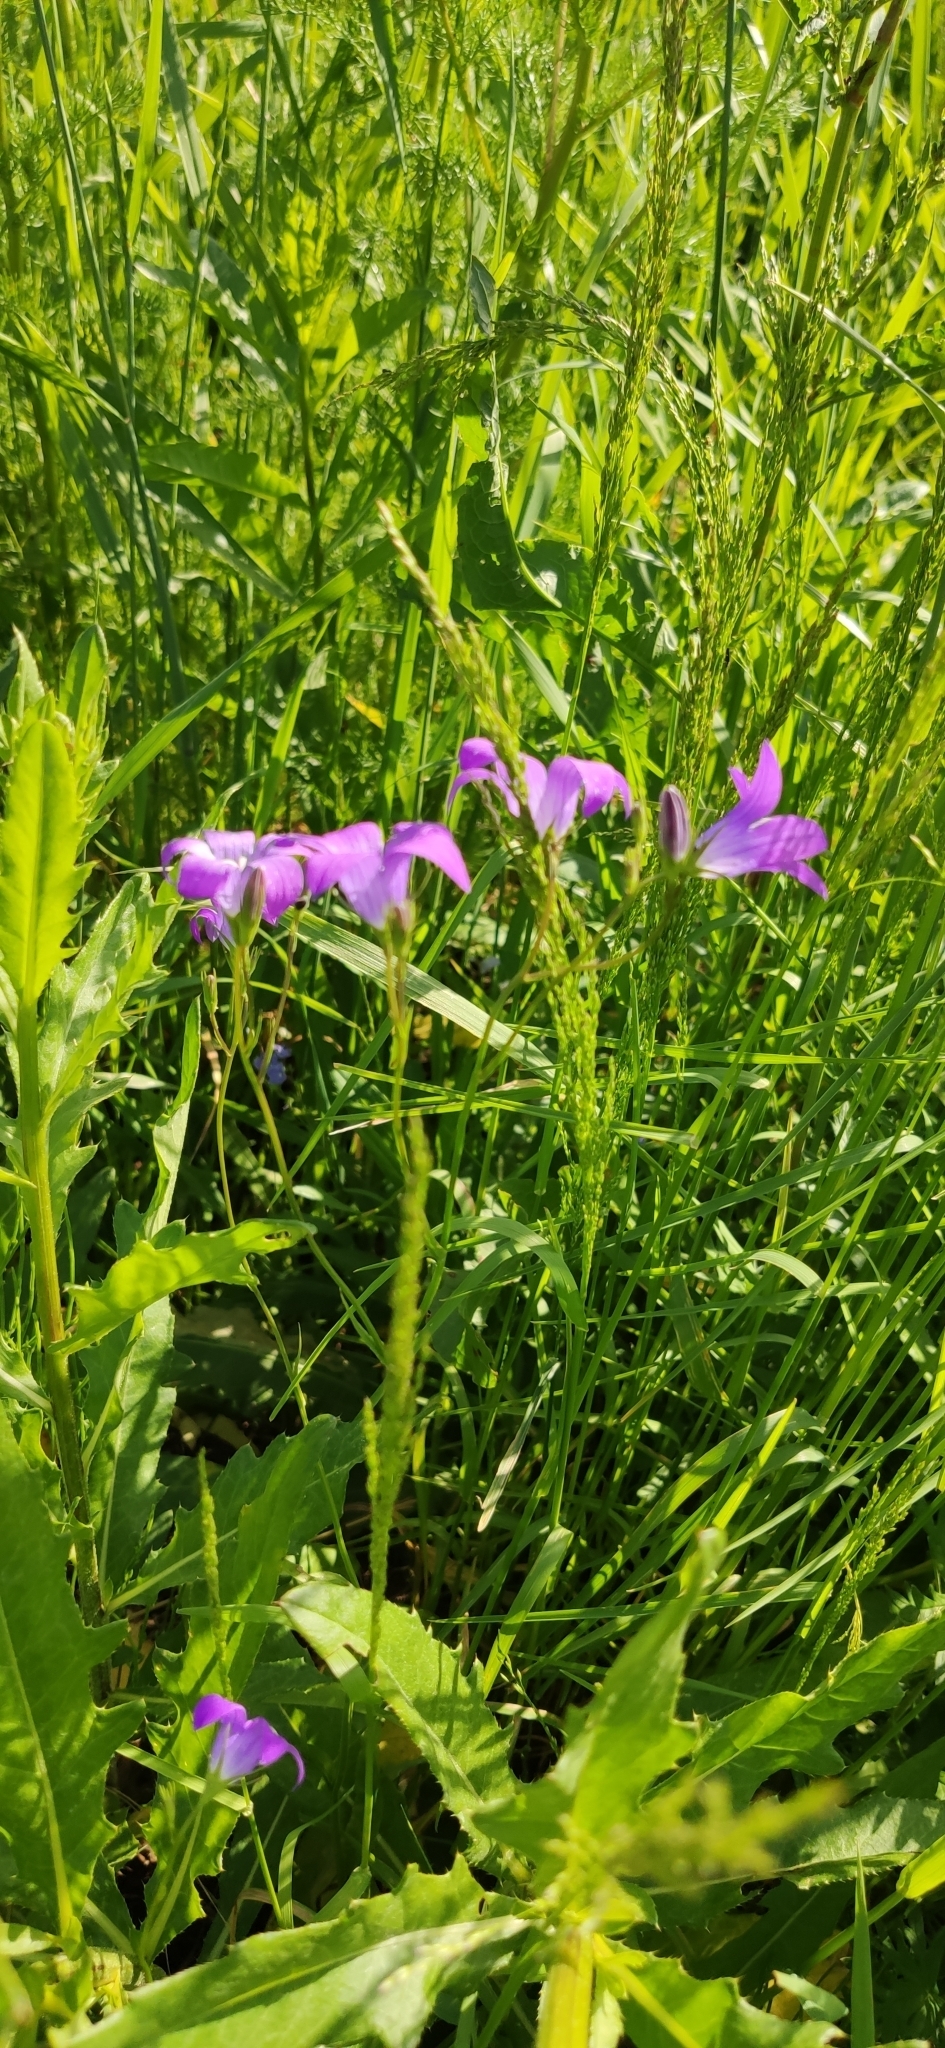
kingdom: Plantae
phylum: Tracheophyta
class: Magnoliopsida
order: Asterales
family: Campanulaceae
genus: Campanula
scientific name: Campanula patula
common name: Spreading bellflower
